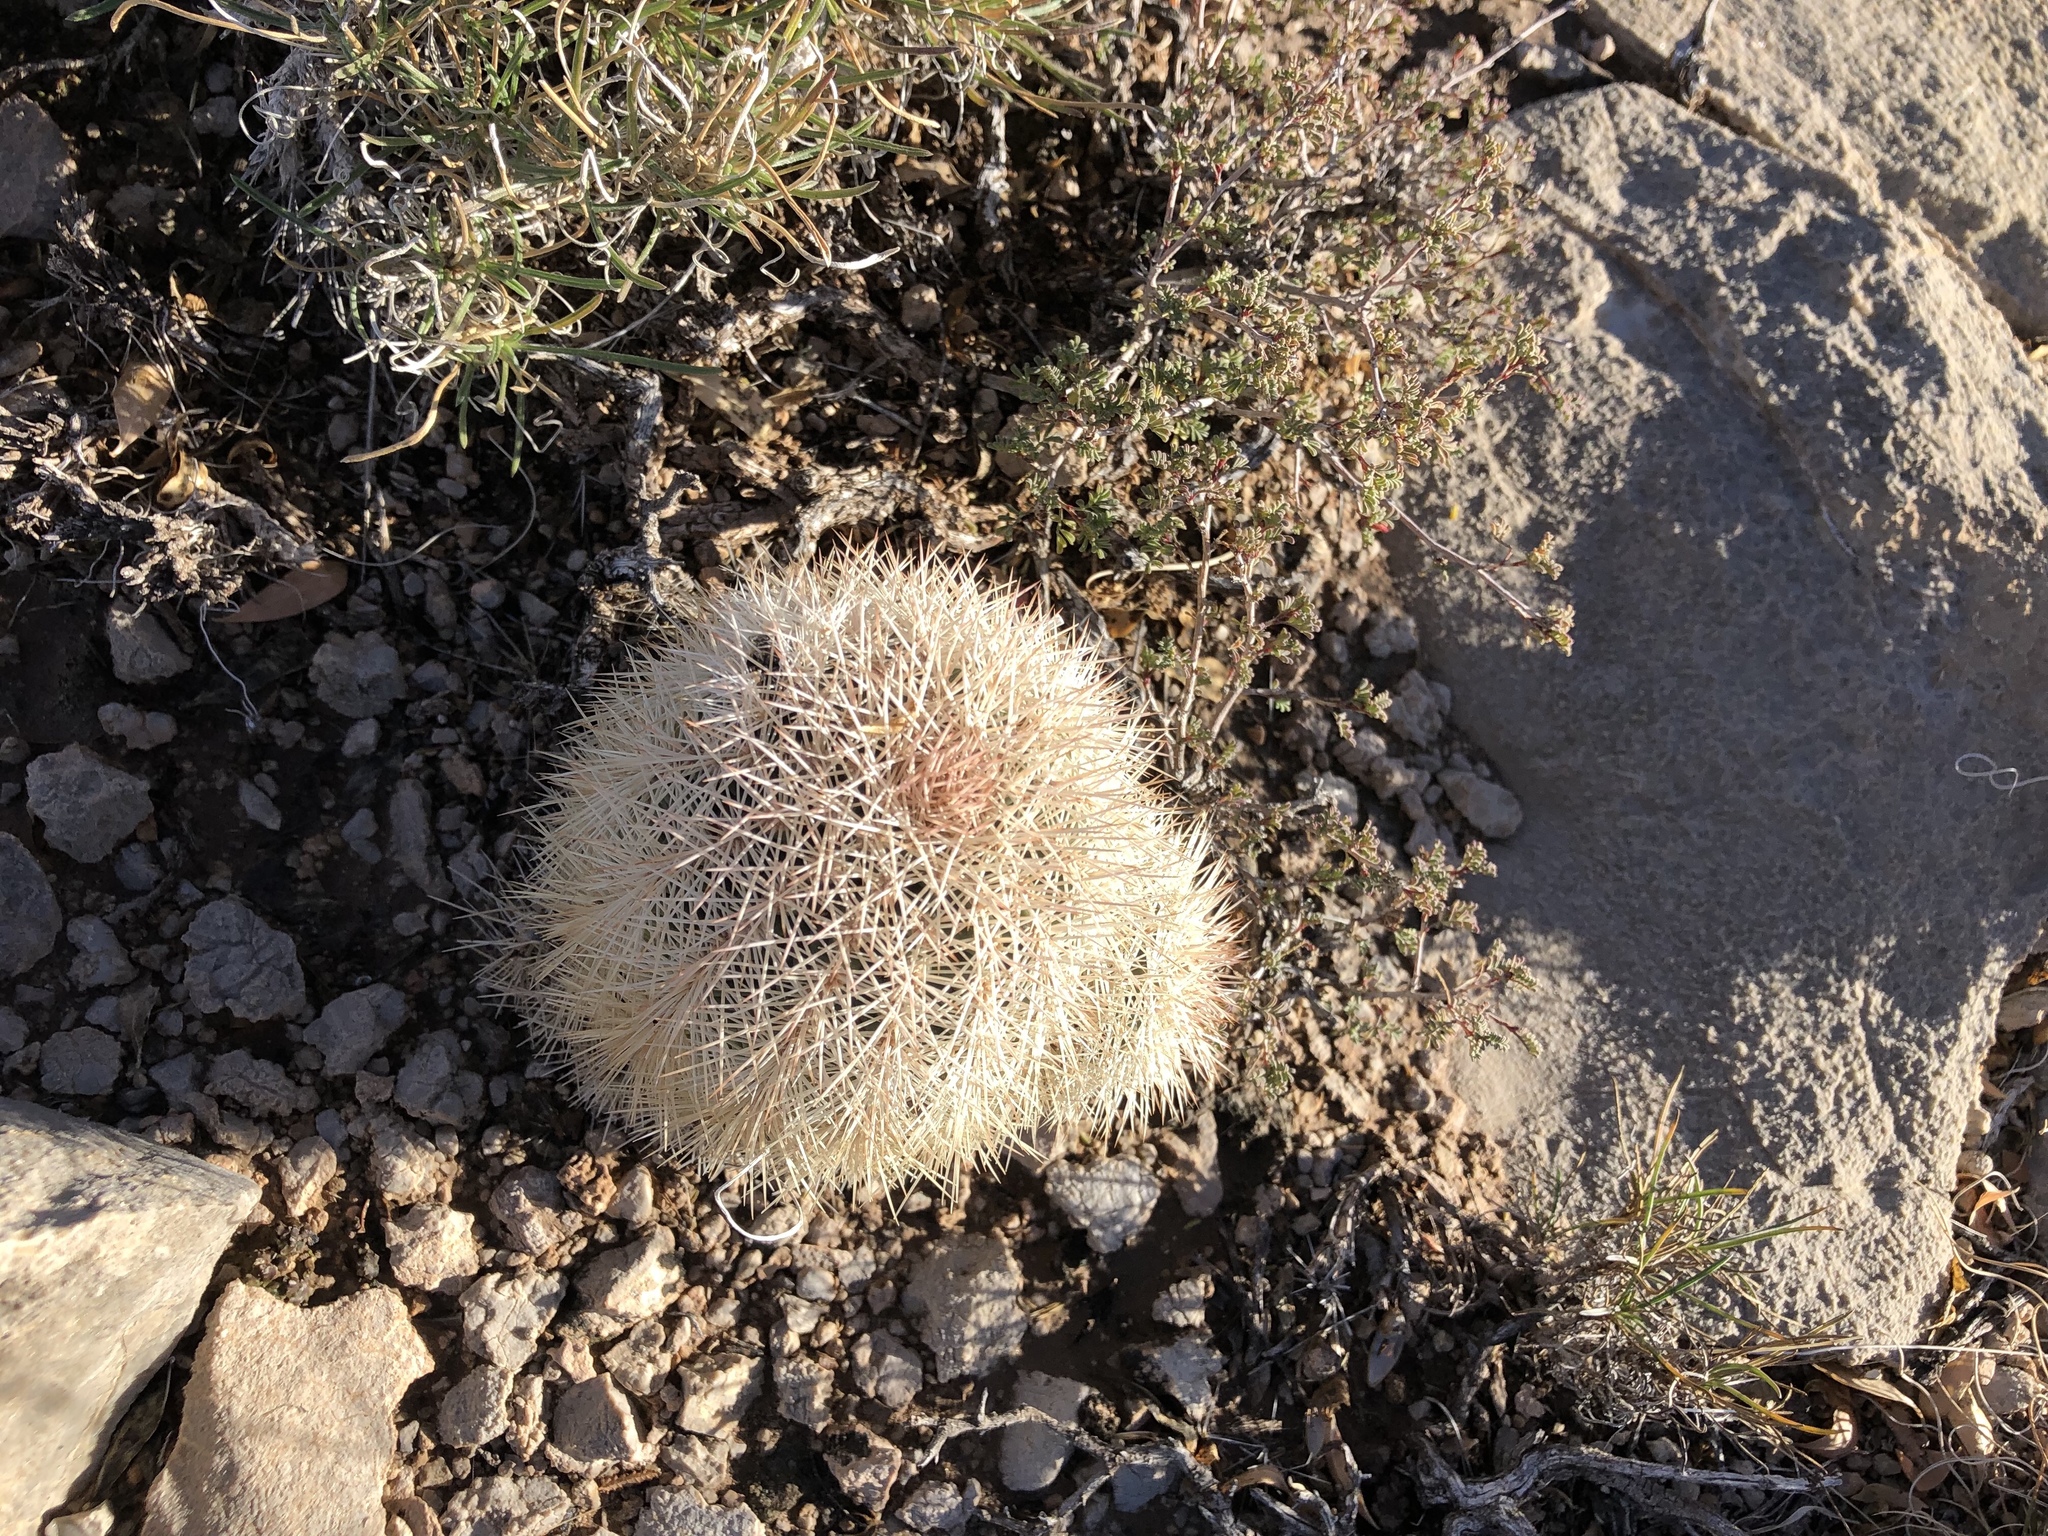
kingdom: Plantae
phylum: Tracheophyta
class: Magnoliopsida
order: Caryophyllales
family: Cactaceae
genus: Echinocereus
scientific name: Echinocereus dasyacanthus
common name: Spiny hedgehog cactus
